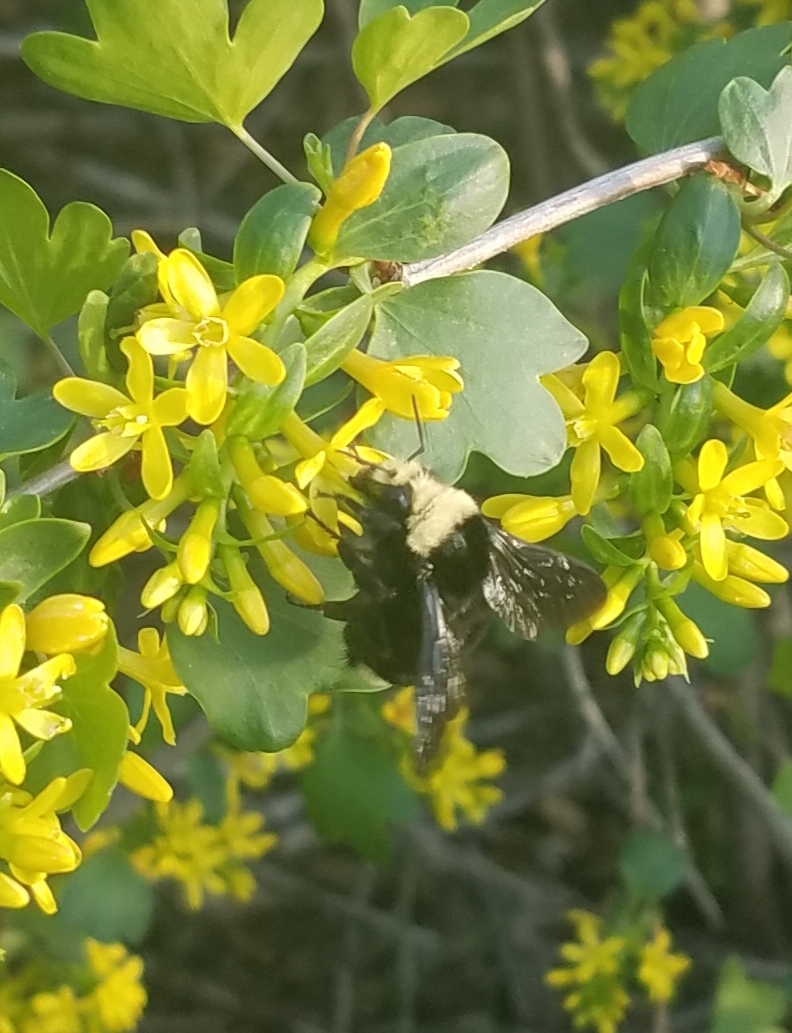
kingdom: Animalia
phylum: Arthropoda
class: Insecta
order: Hymenoptera
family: Apidae
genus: Bombus
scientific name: Bombus vosnesenskii
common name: Vosnesensky bumble bee
